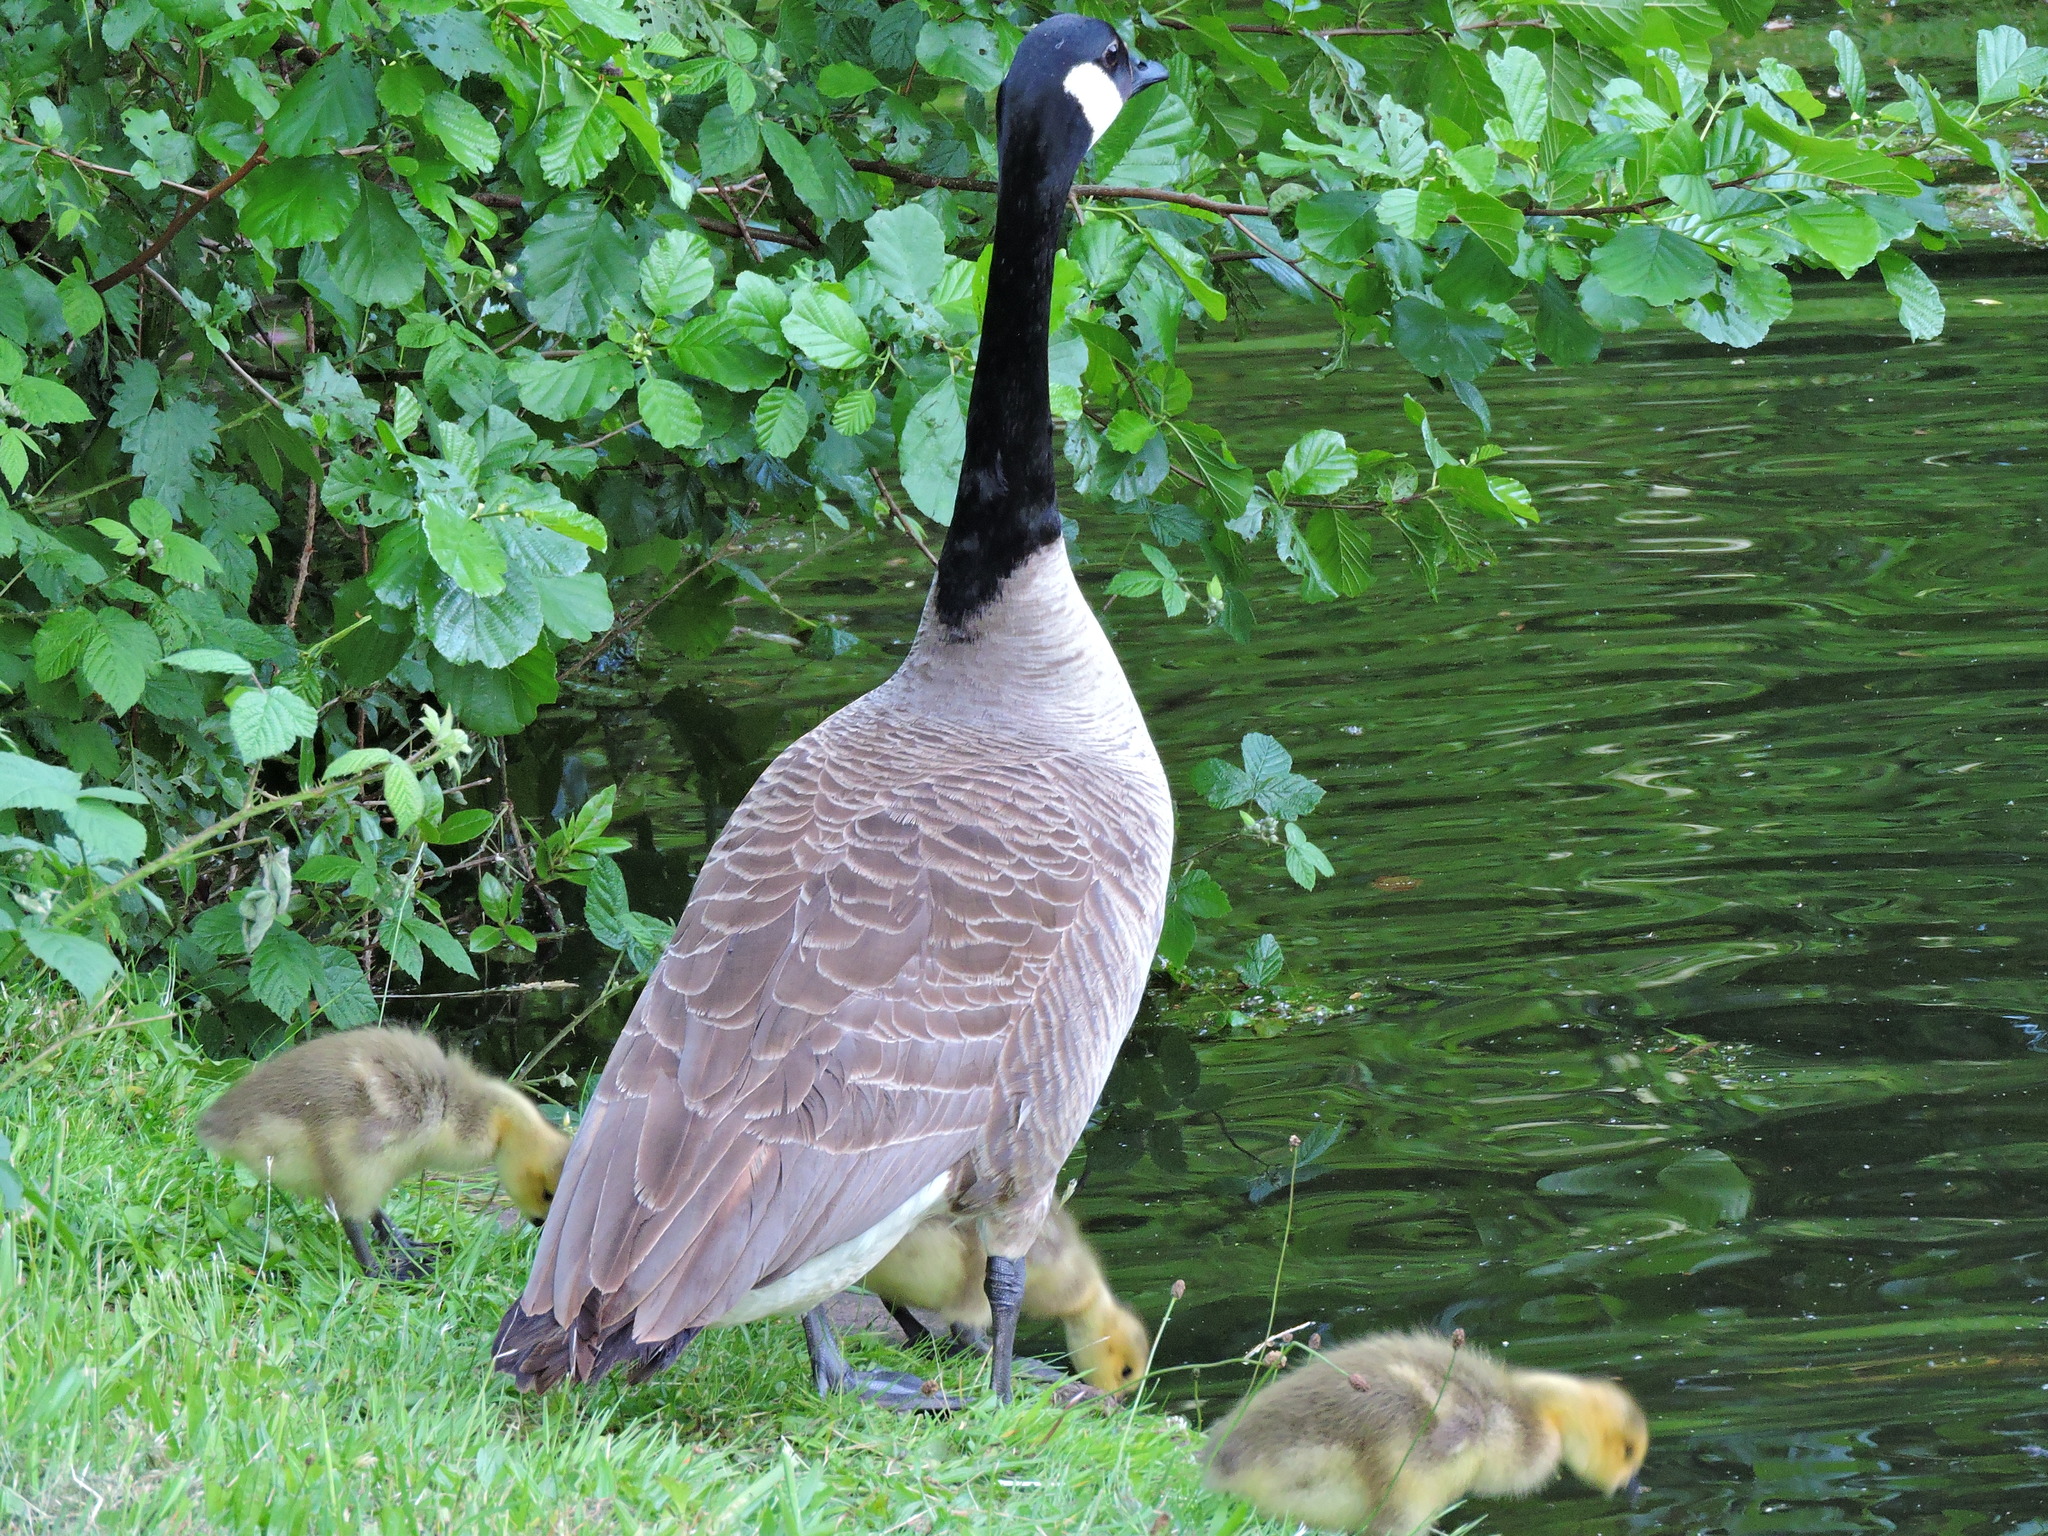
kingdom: Animalia
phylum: Chordata
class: Aves
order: Anseriformes
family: Anatidae
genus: Branta
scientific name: Branta canadensis
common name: Canada goose
